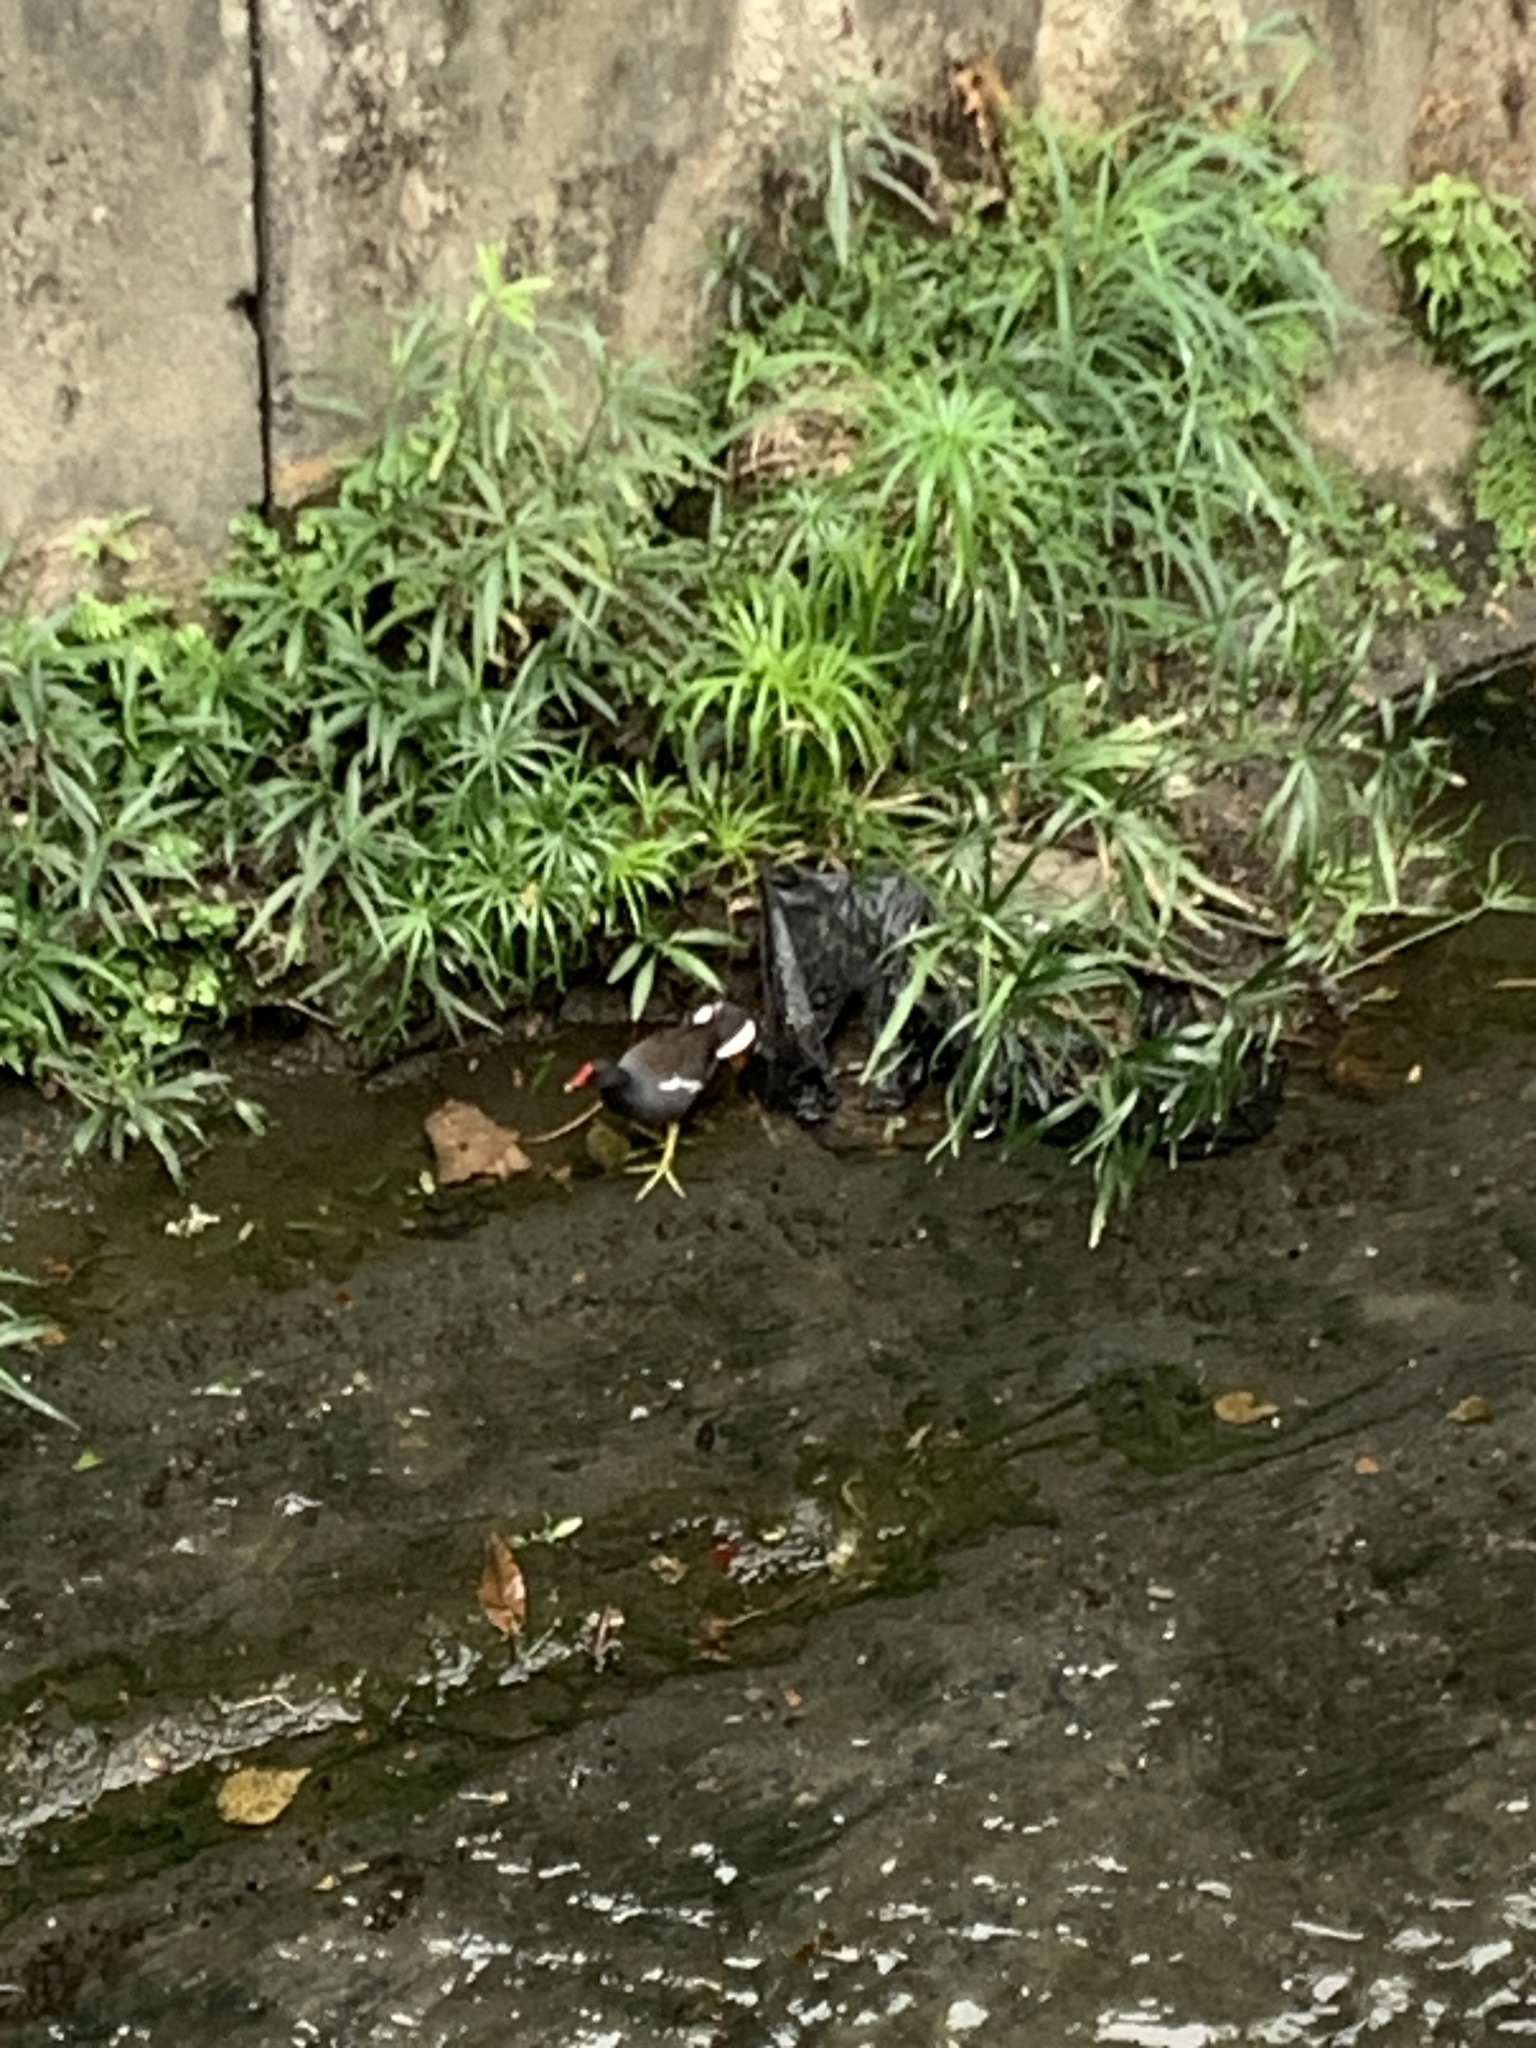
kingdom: Animalia
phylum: Chordata
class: Aves
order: Gruiformes
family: Rallidae
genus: Gallinula
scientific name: Gallinula chloropus
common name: Common moorhen
